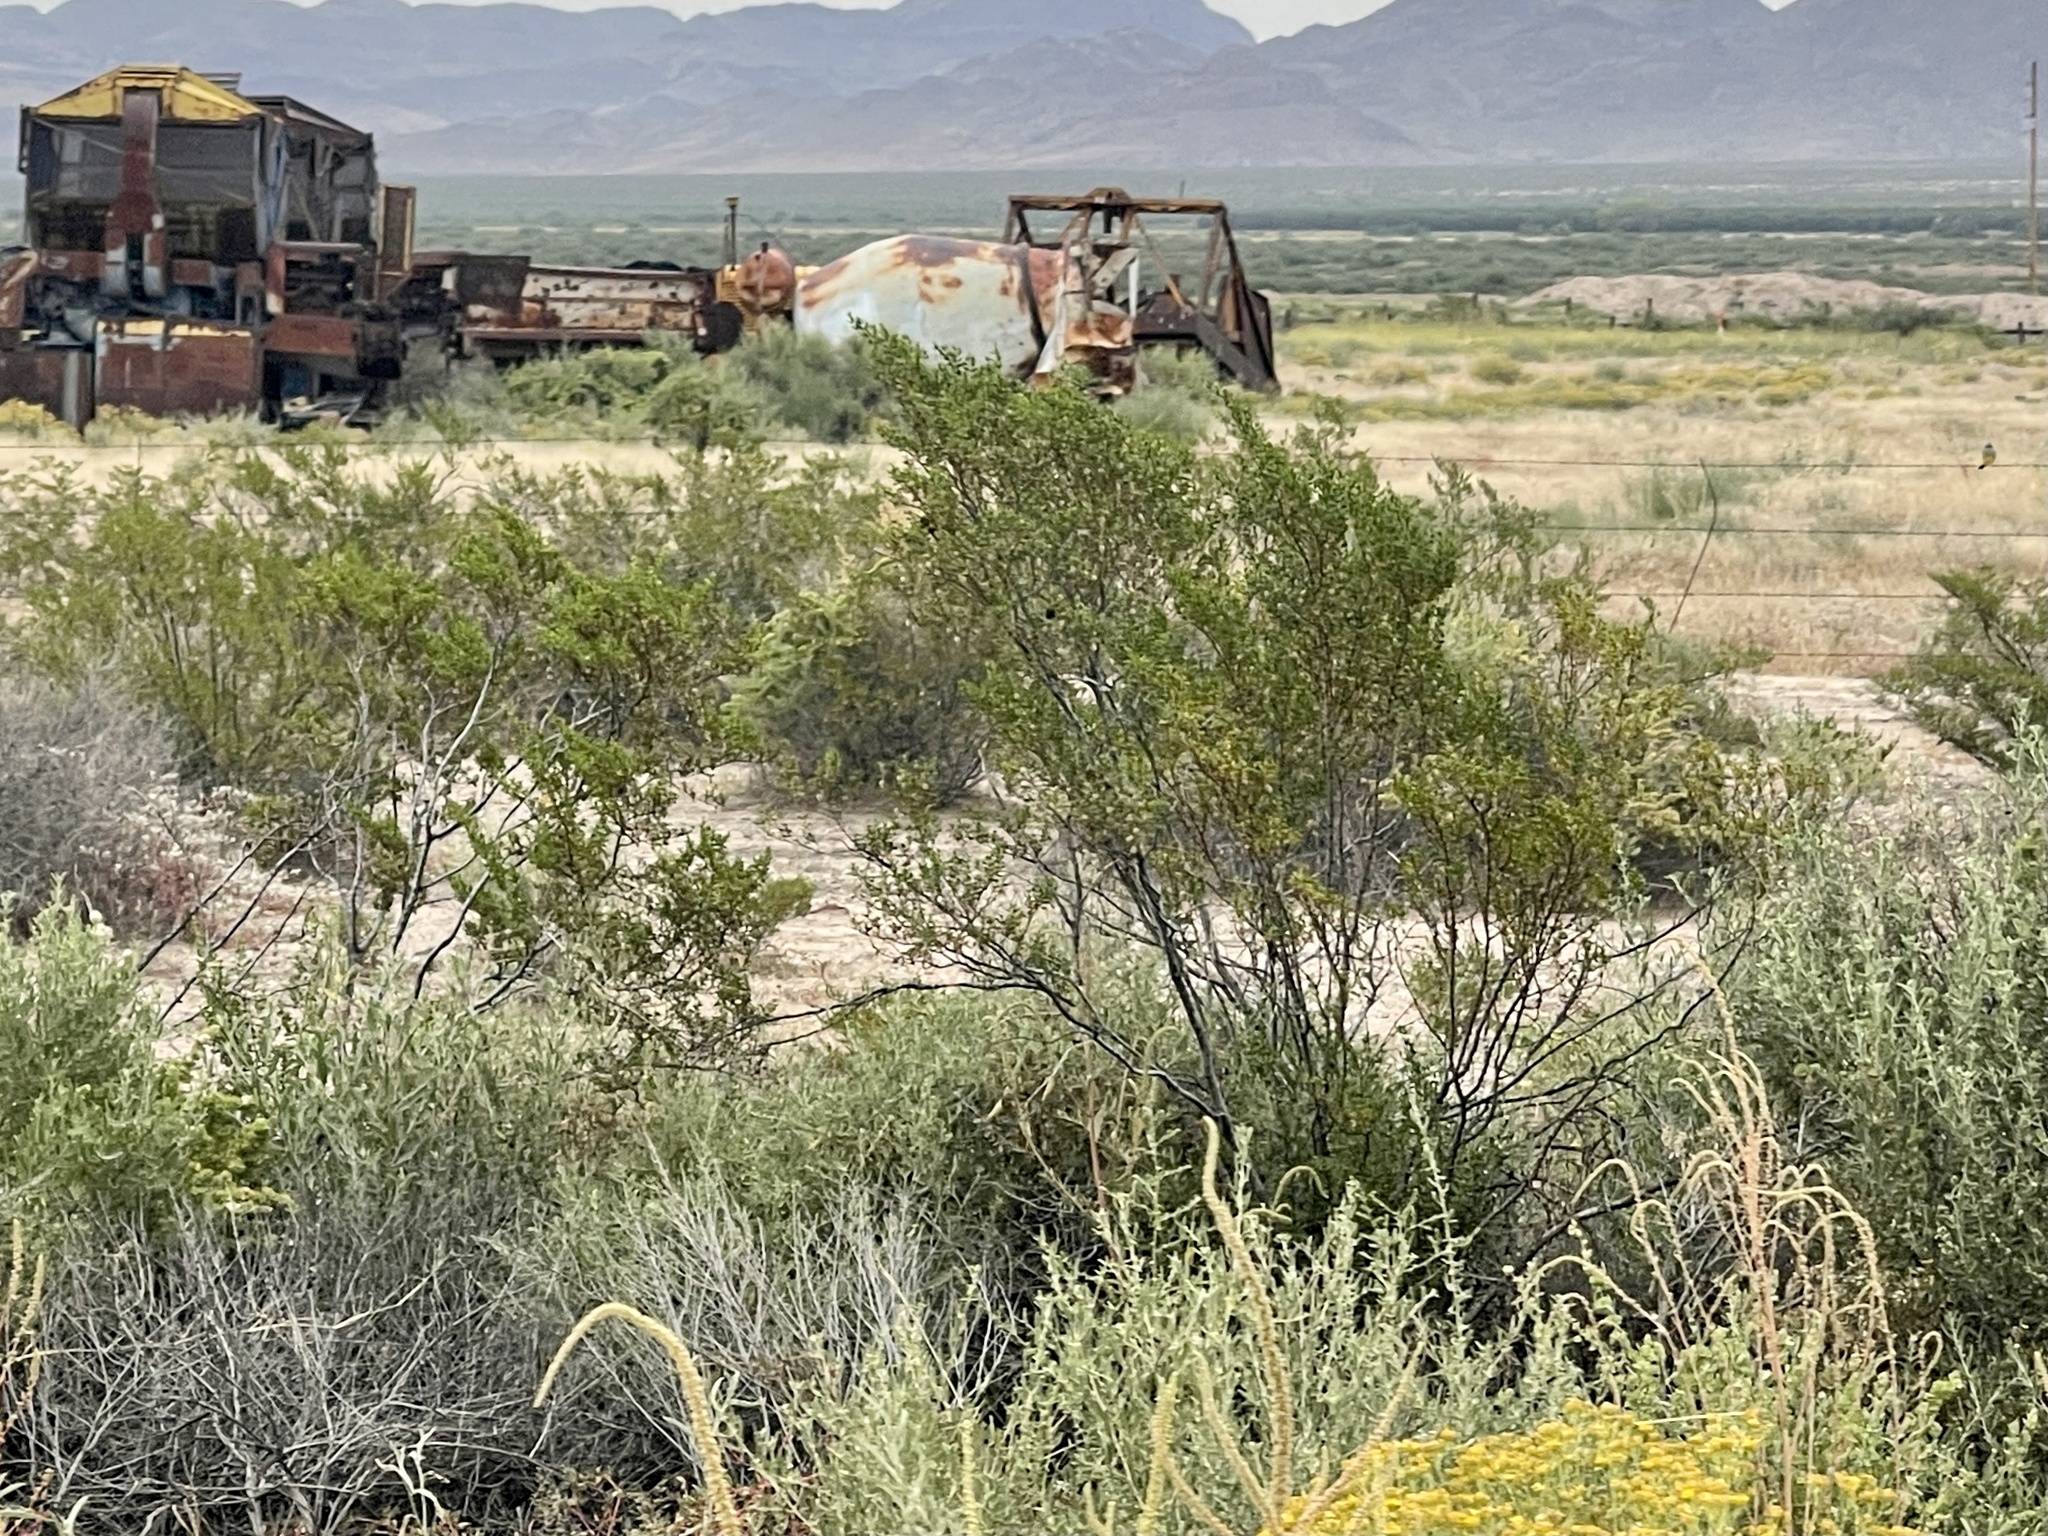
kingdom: Plantae
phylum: Tracheophyta
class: Magnoliopsida
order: Zygophyllales
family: Zygophyllaceae
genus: Larrea
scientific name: Larrea tridentata
